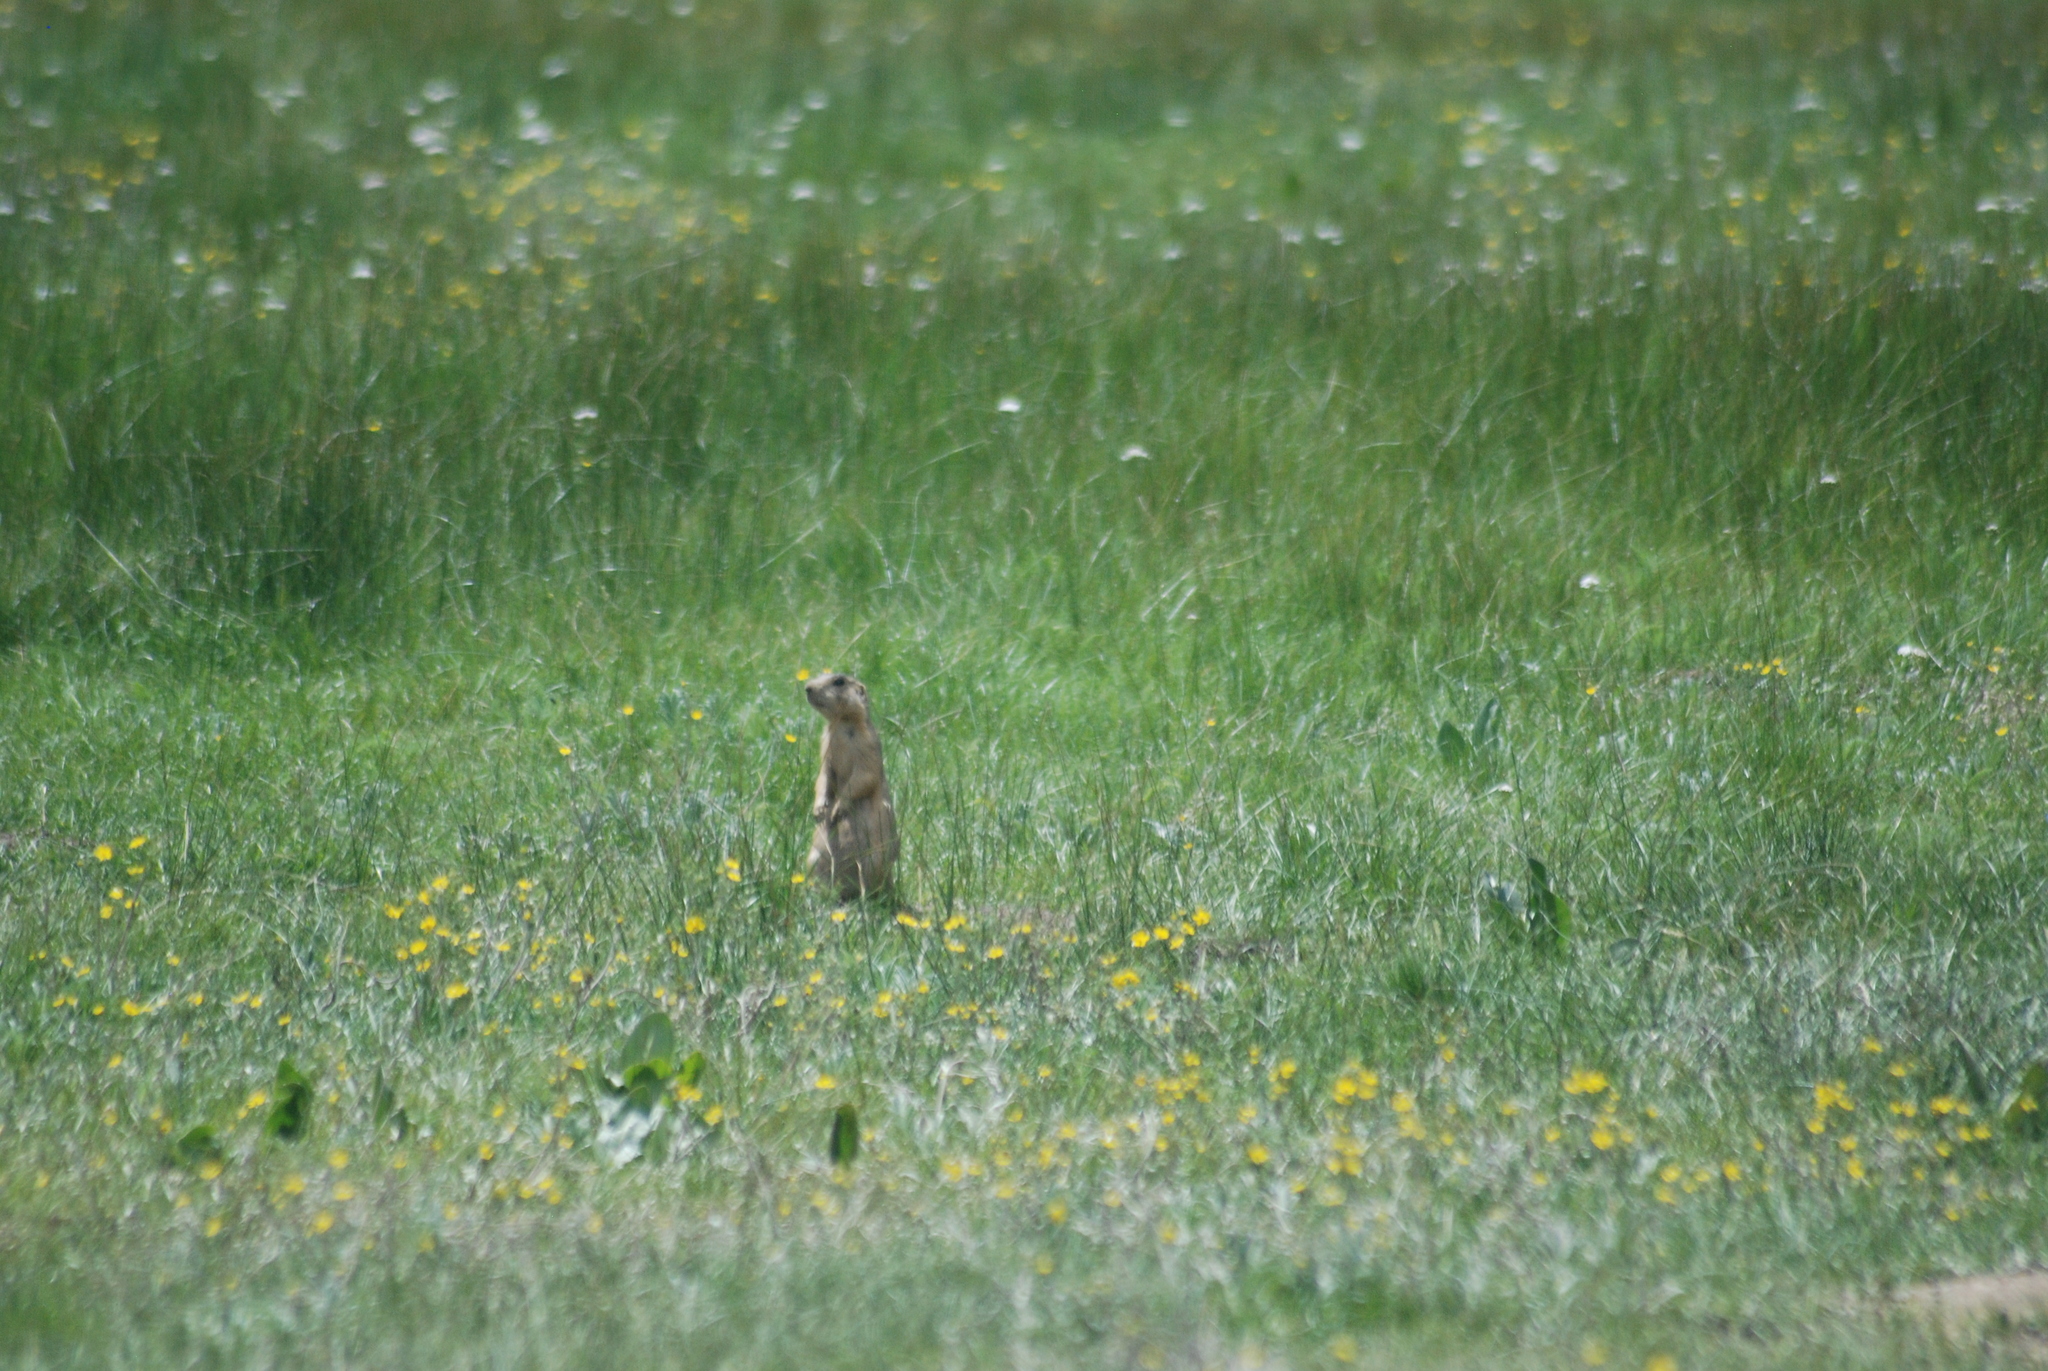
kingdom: Animalia
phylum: Chordata
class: Mammalia
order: Rodentia
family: Sciuridae
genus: Cynomys
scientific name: Cynomys gunnisoni
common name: Gunnison's prairie dog
